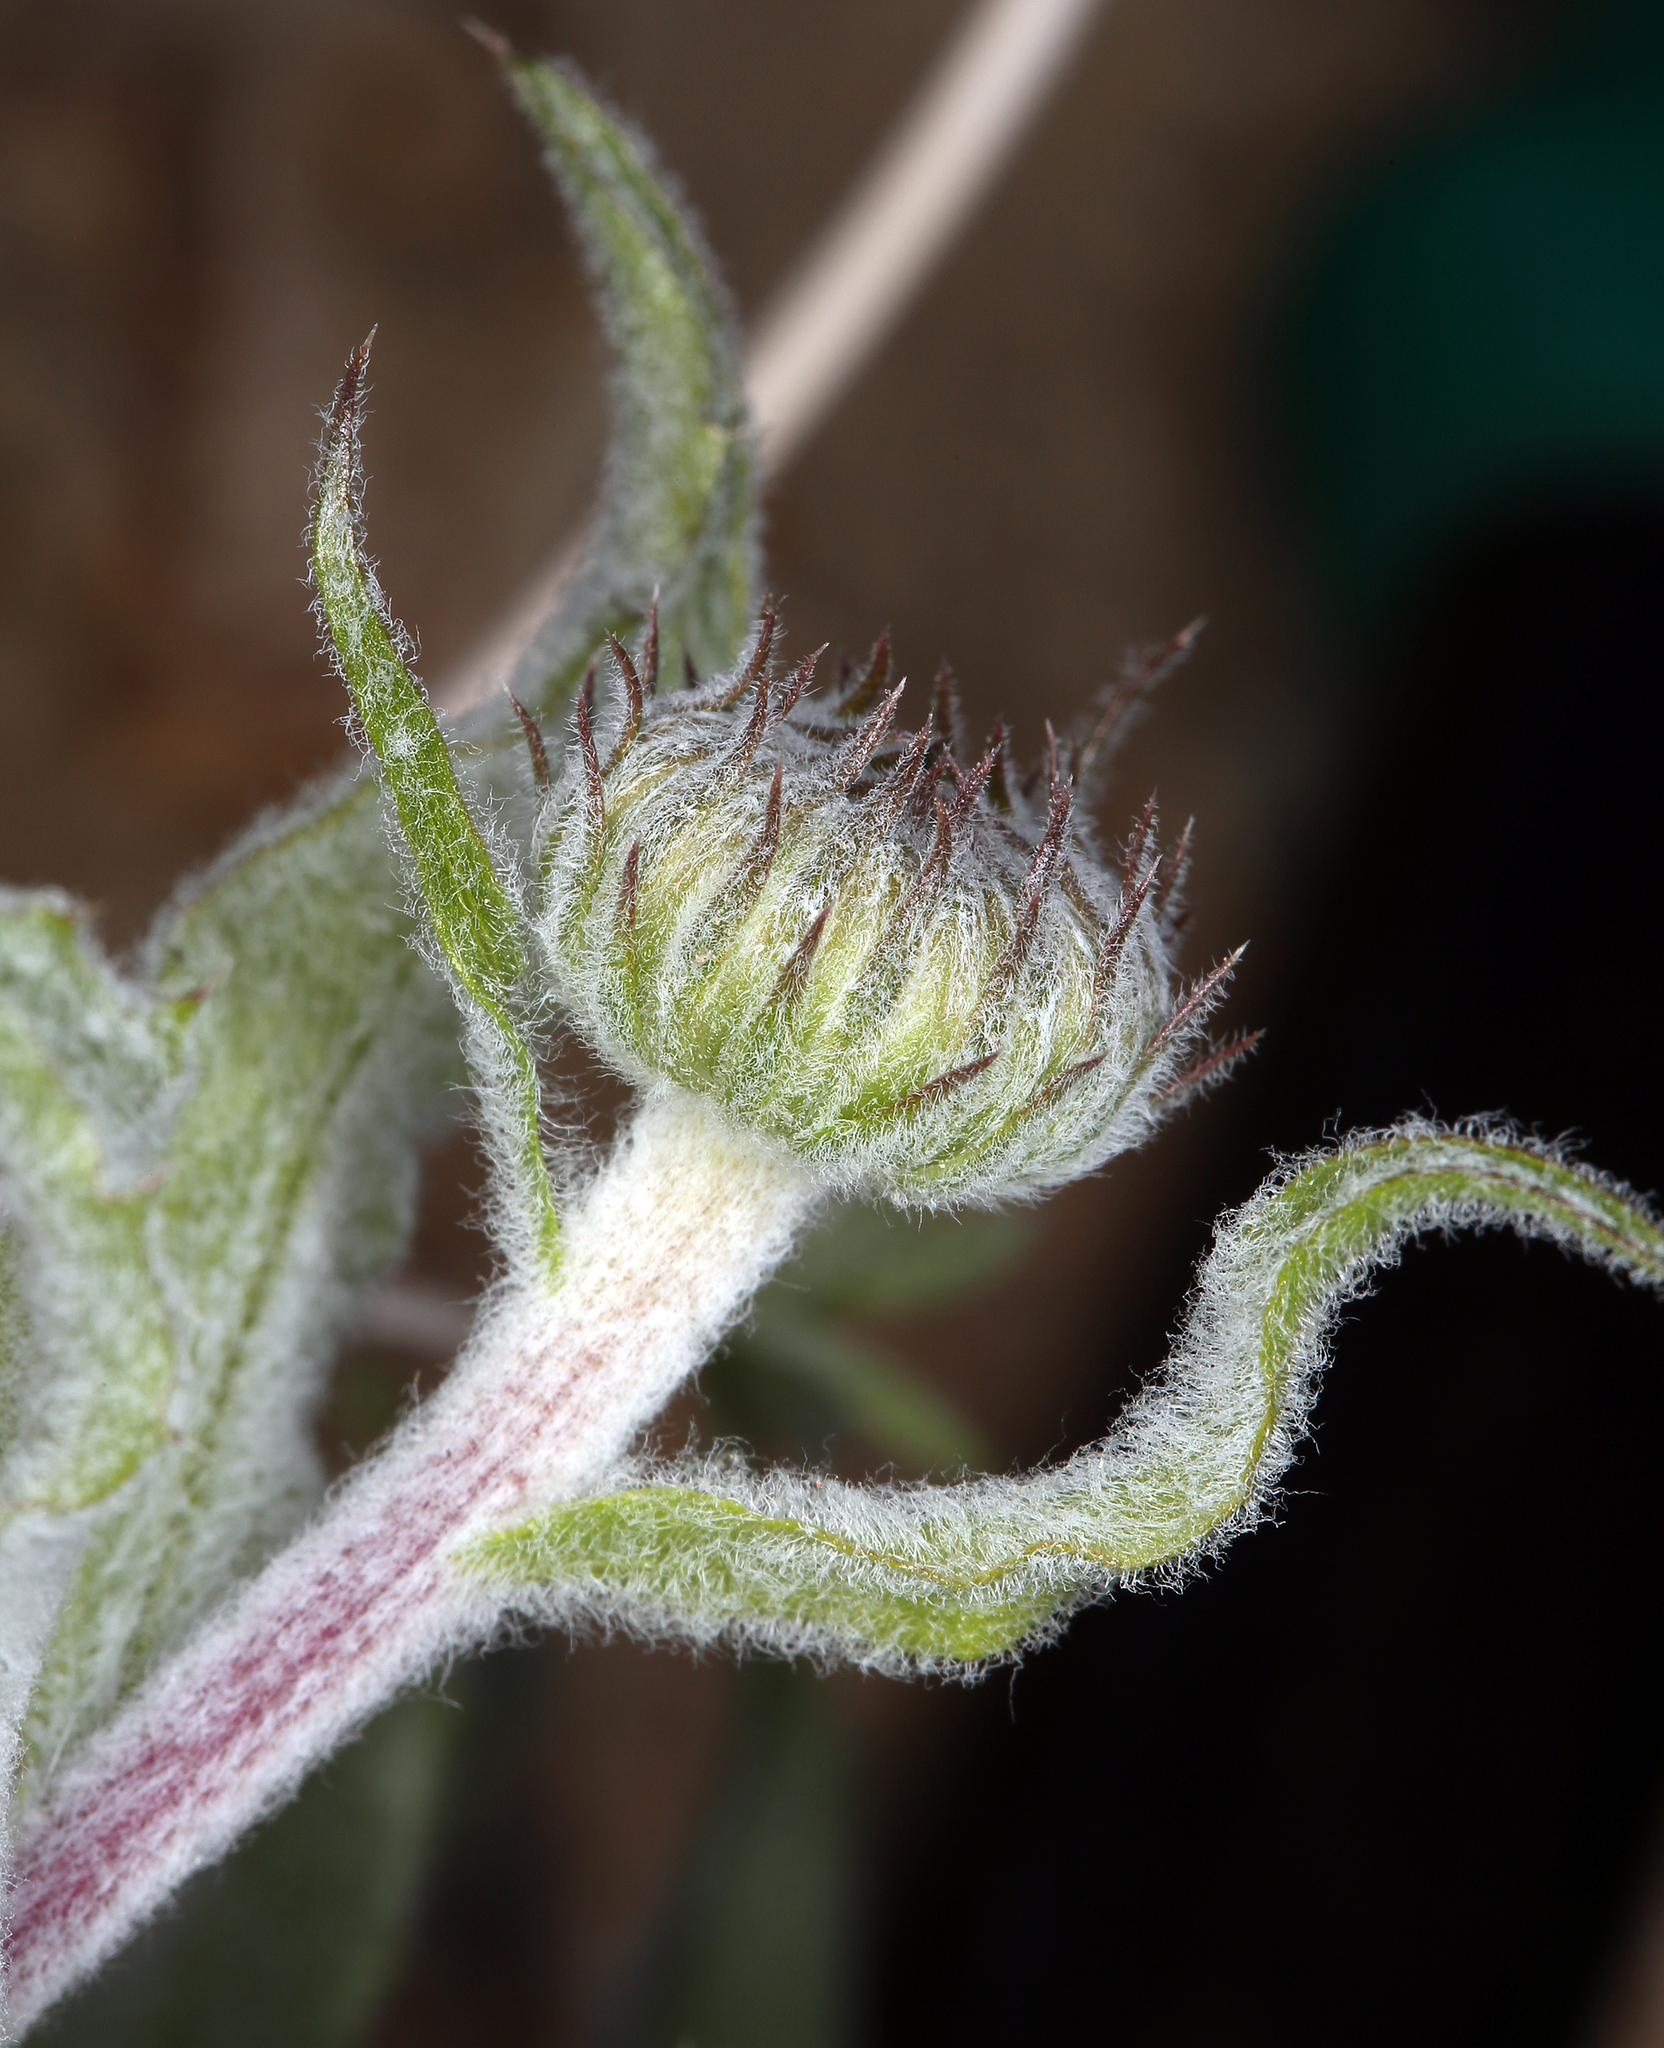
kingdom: Plantae
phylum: Tracheophyta
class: Magnoliopsida
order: Asterales
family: Asteraceae
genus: Xylorhiza
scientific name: Xylorhiza tortifolia
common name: Hurt-leaf woody-aster
